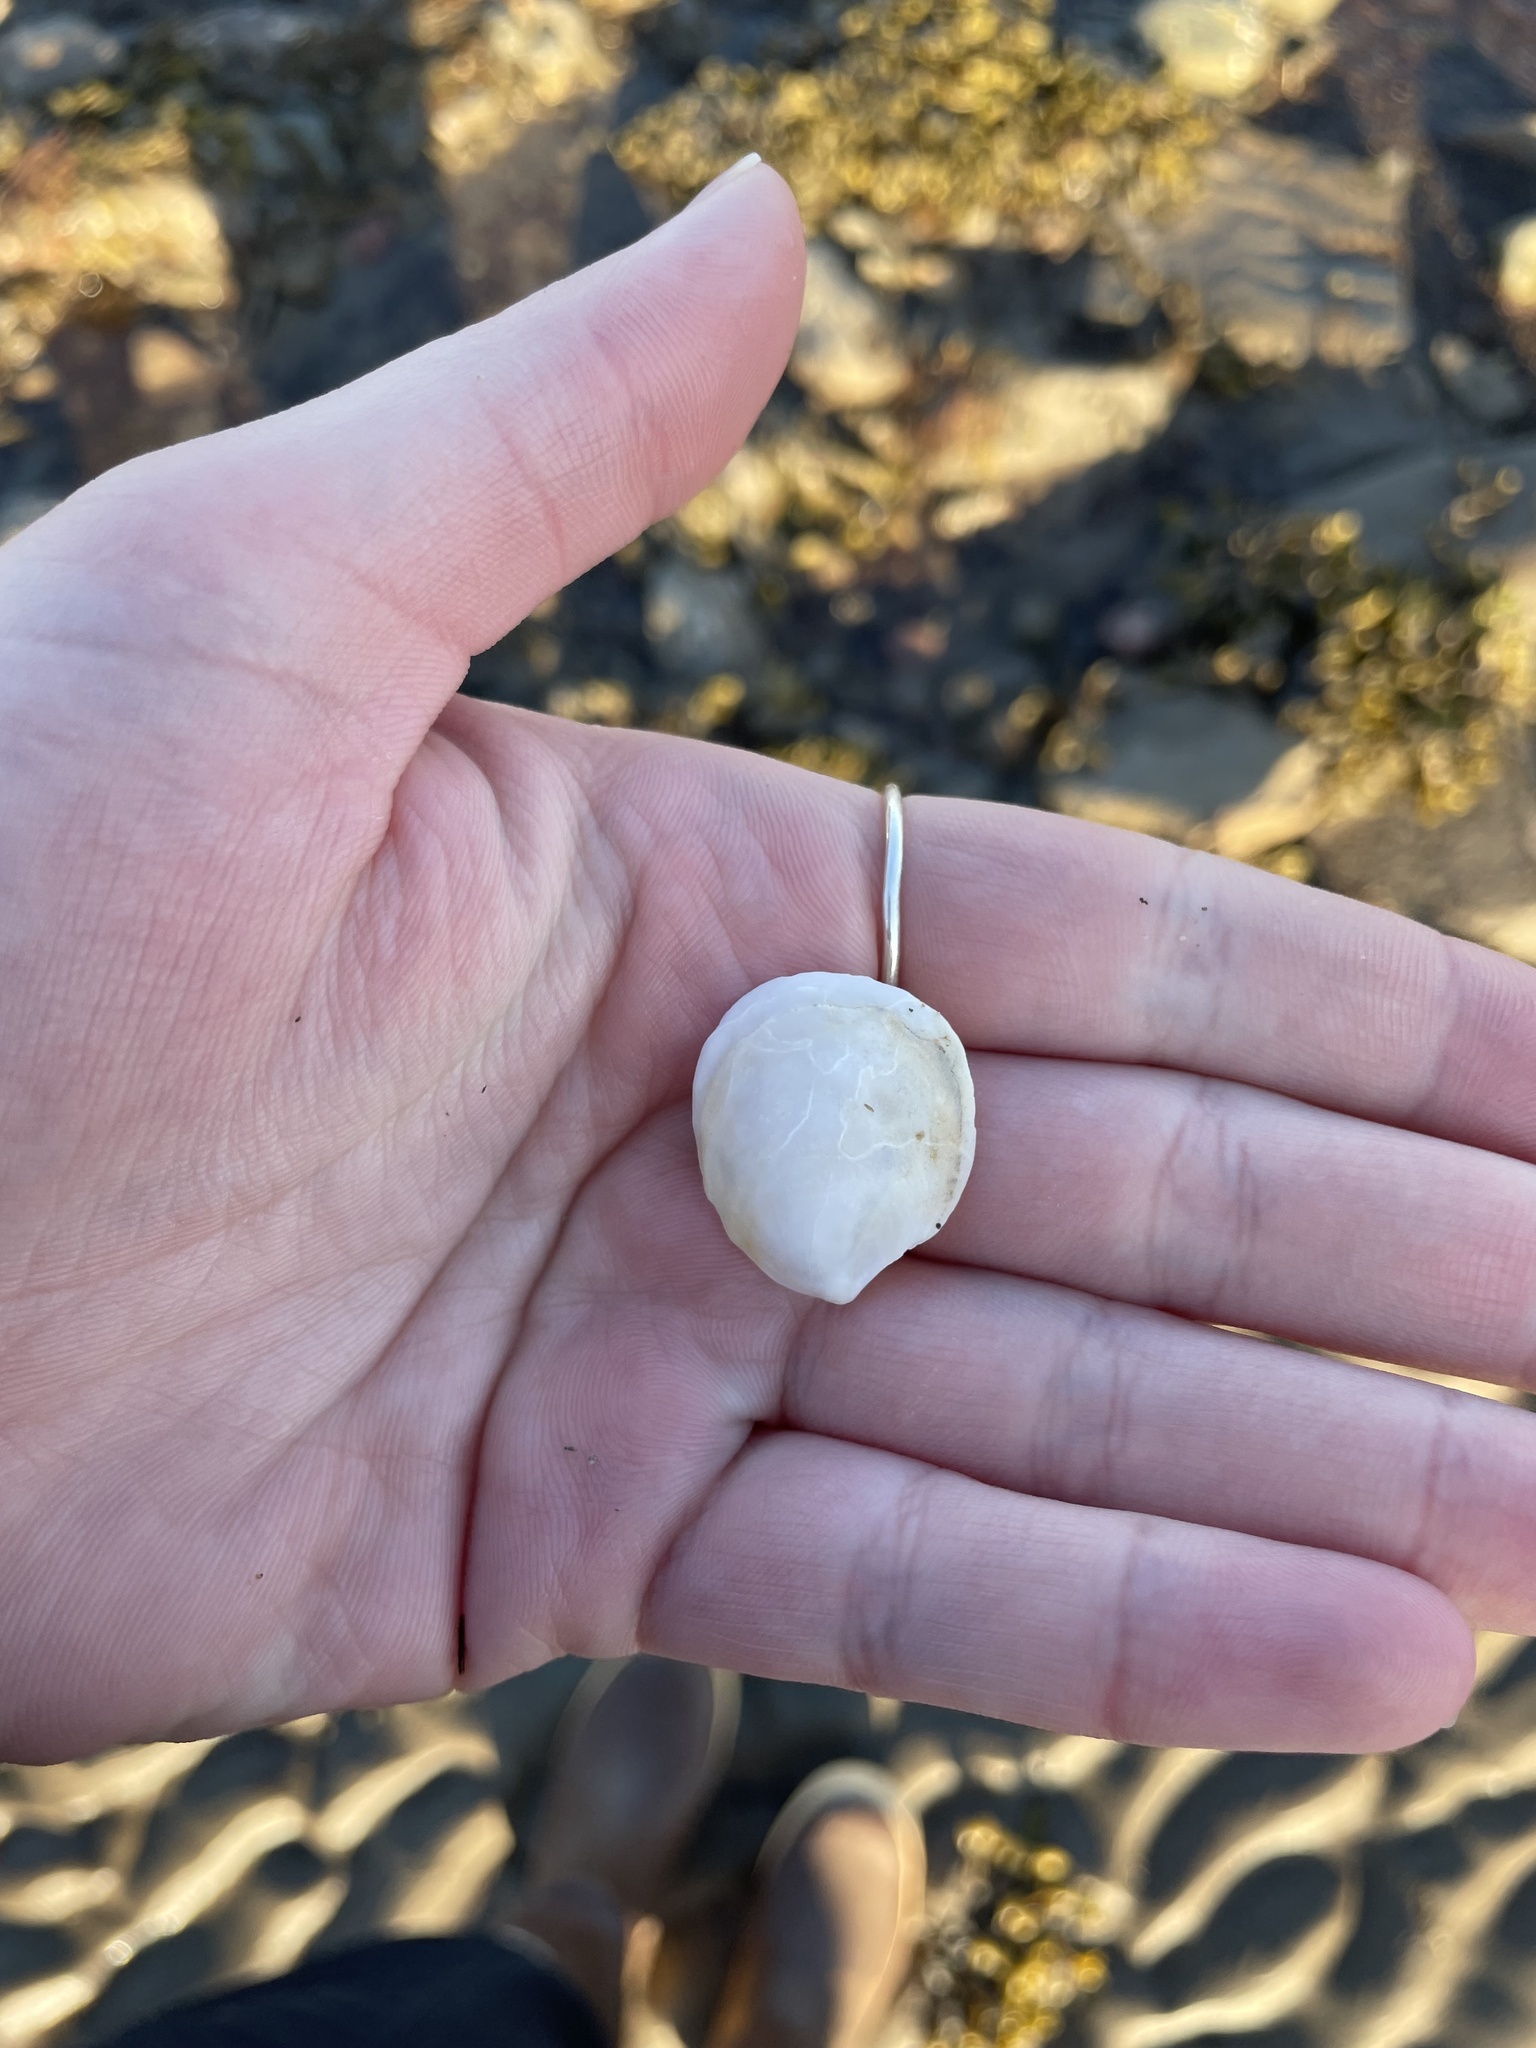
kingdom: Animalia
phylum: Mollusca
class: Gastropoda
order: Littorinimorpha
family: Calyptraeidae
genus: Crepidula
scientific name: Crepidula plana
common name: Eastern white slippersnail
